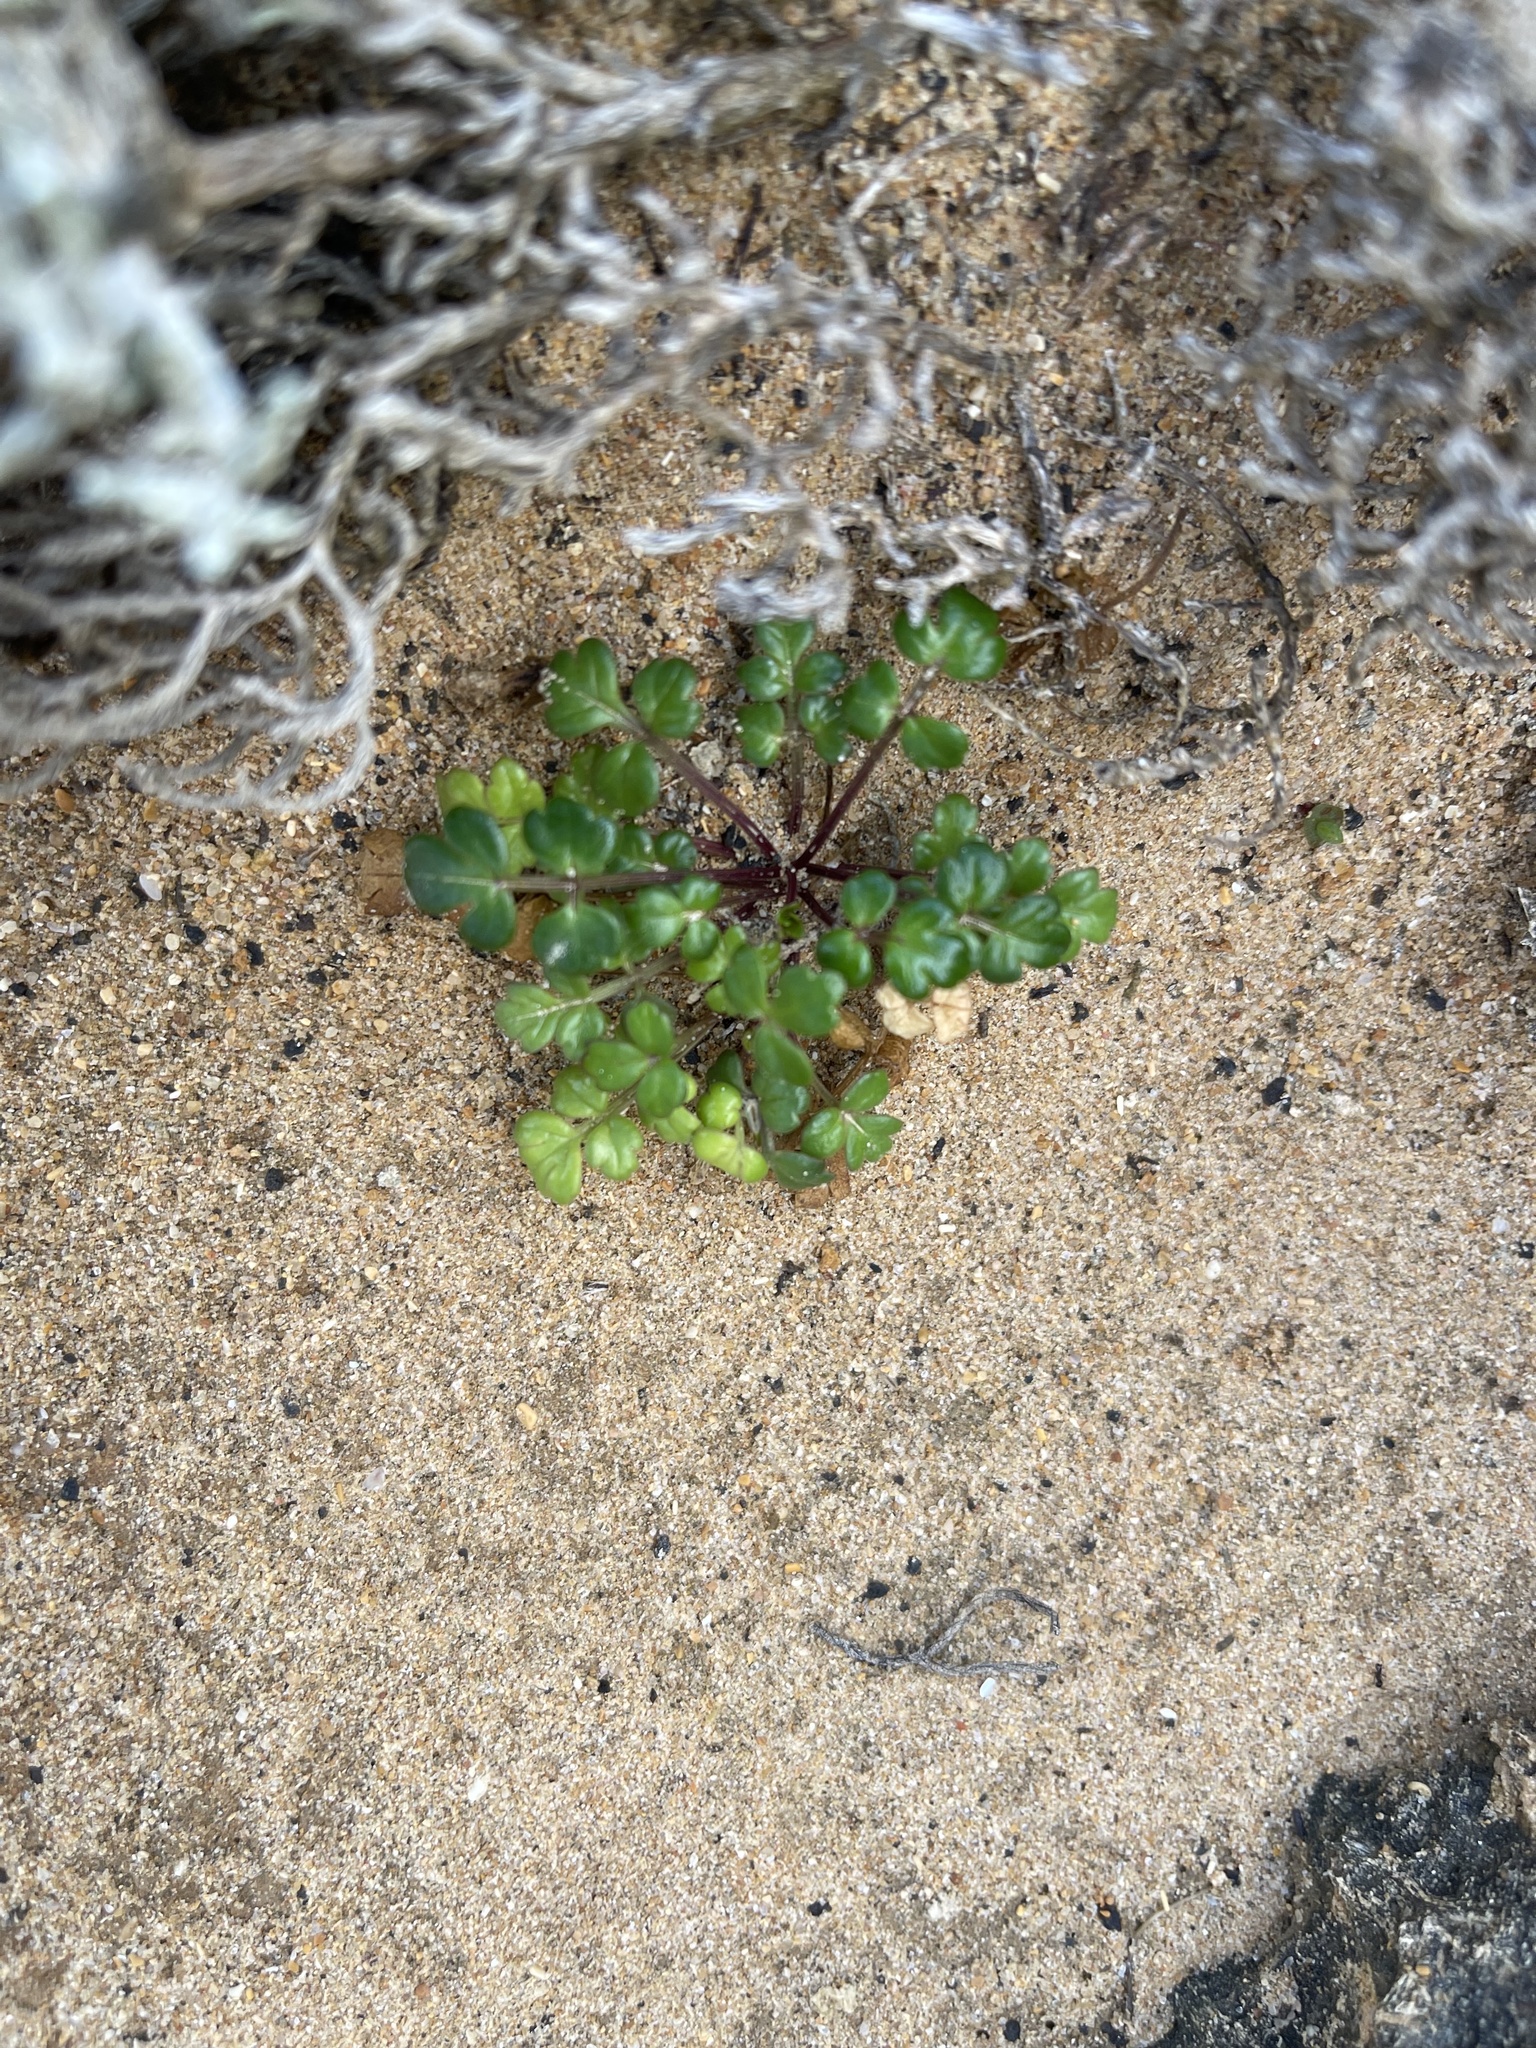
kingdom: Plantae
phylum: Tracheophyta
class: Magnoliopsida
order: Apiales
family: Apiaceae
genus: Apium
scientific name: Apium prostratum
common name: Prostrate marshwort
